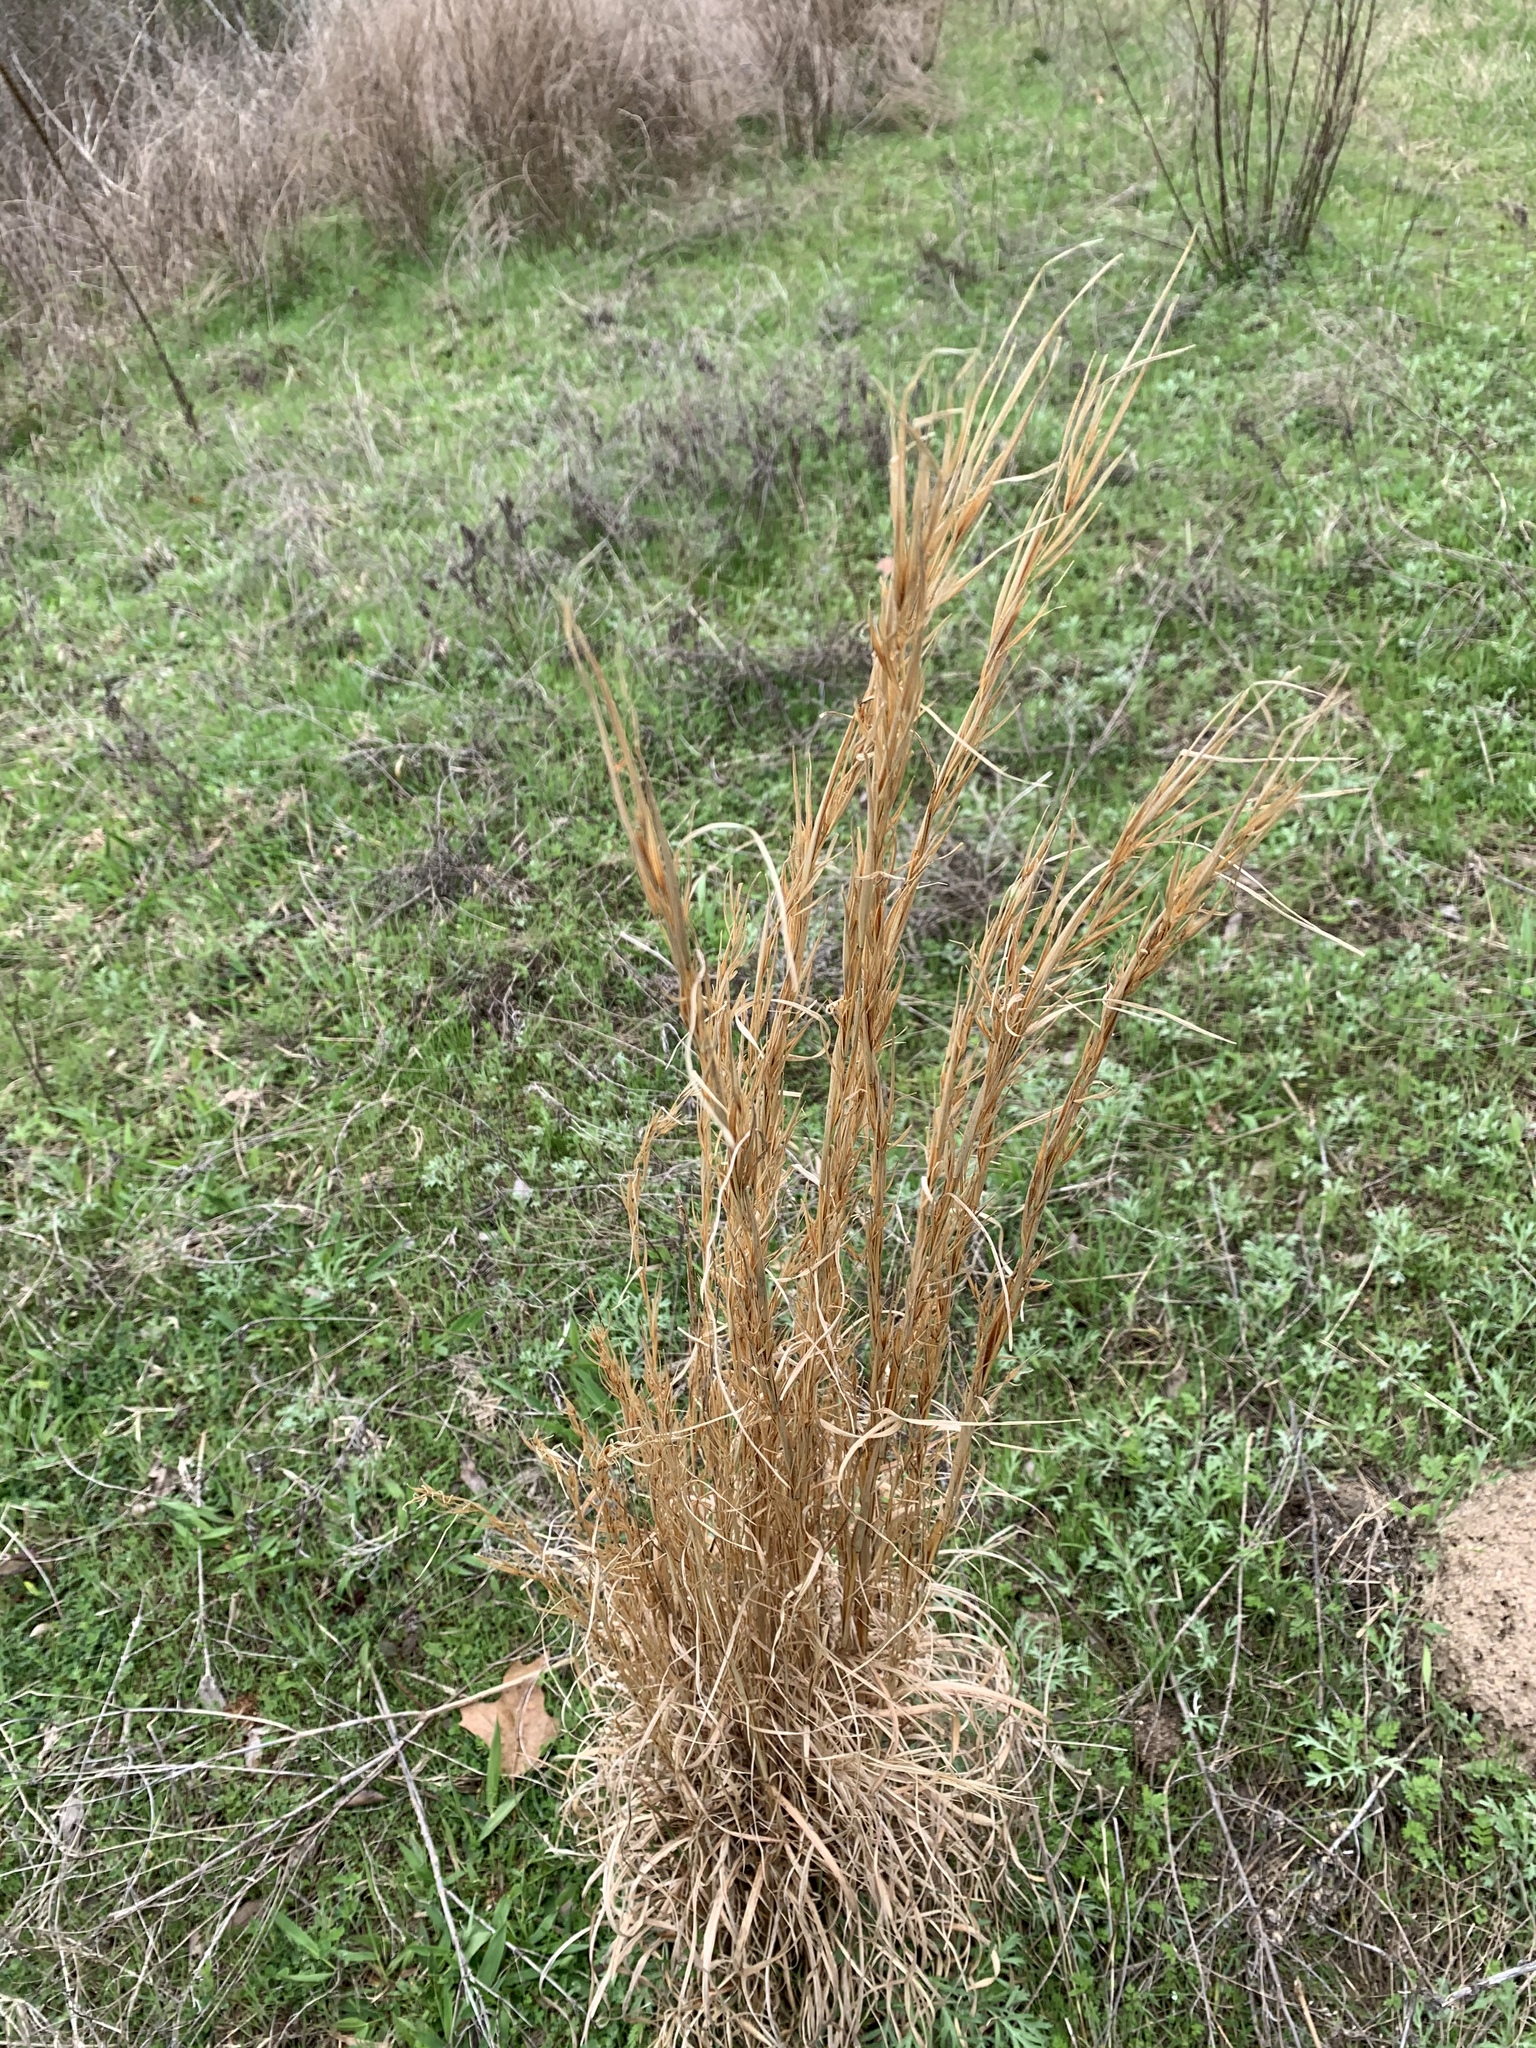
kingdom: Plantae
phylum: Tracheophyta
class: Liliopsida
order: Poales
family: Poaceae
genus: Andropogon
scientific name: Andropogon virginicus
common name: Broomsedge bluestem
